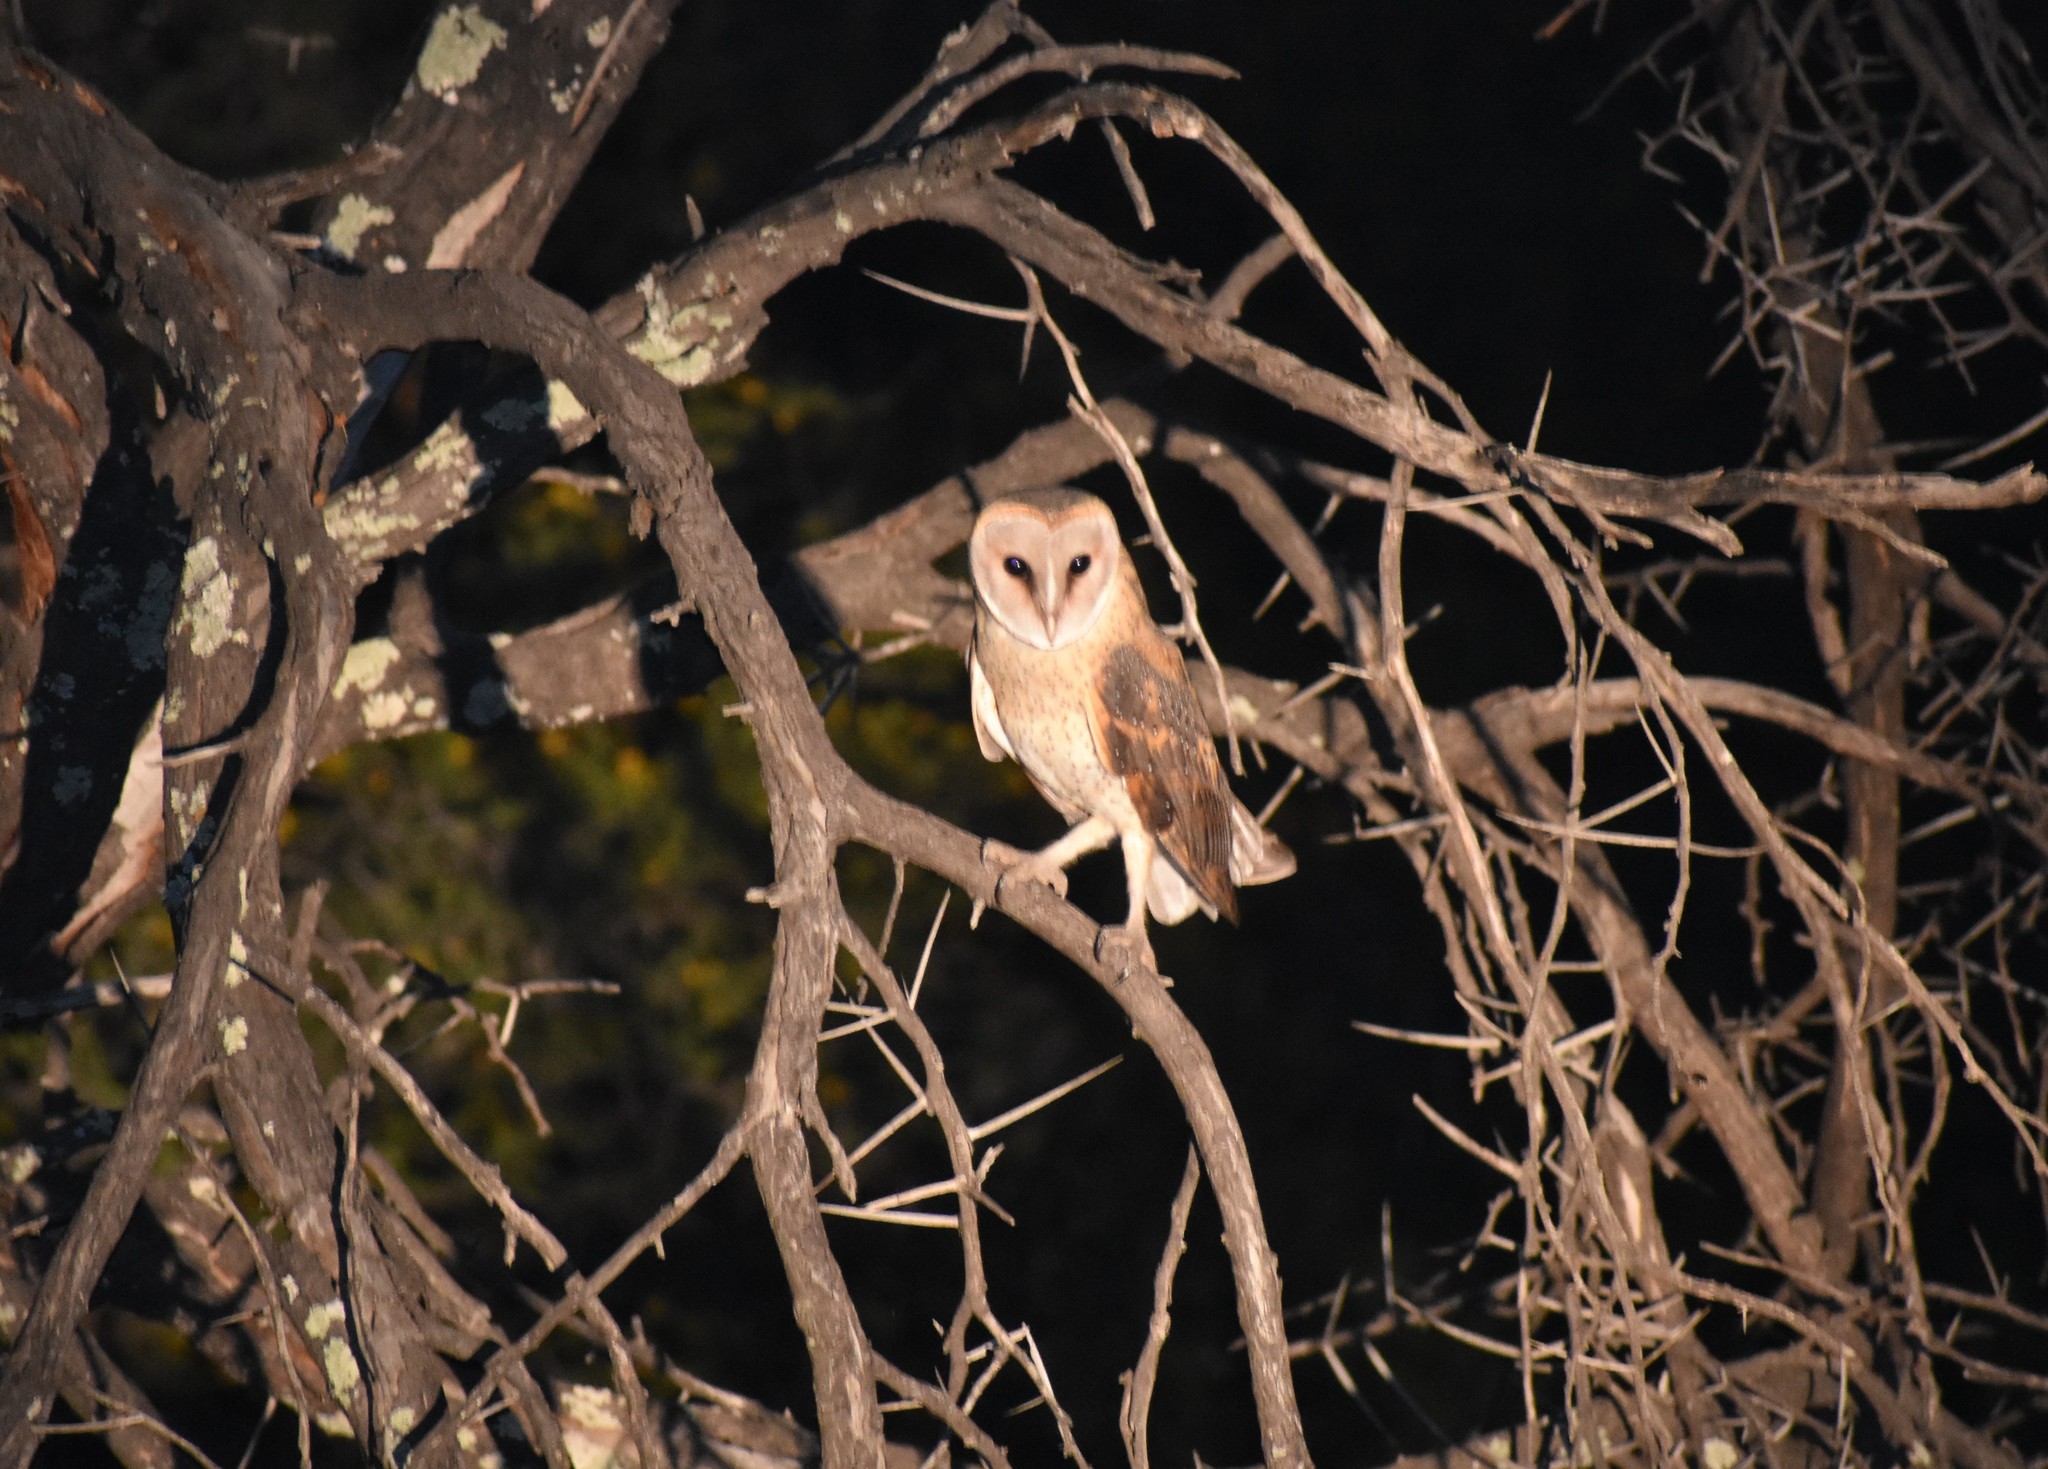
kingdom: Animalia
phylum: Chordata
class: Aves
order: Strigiformes
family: Tytonidae
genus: Tyto
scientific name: Tyto alba
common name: Barn owl
